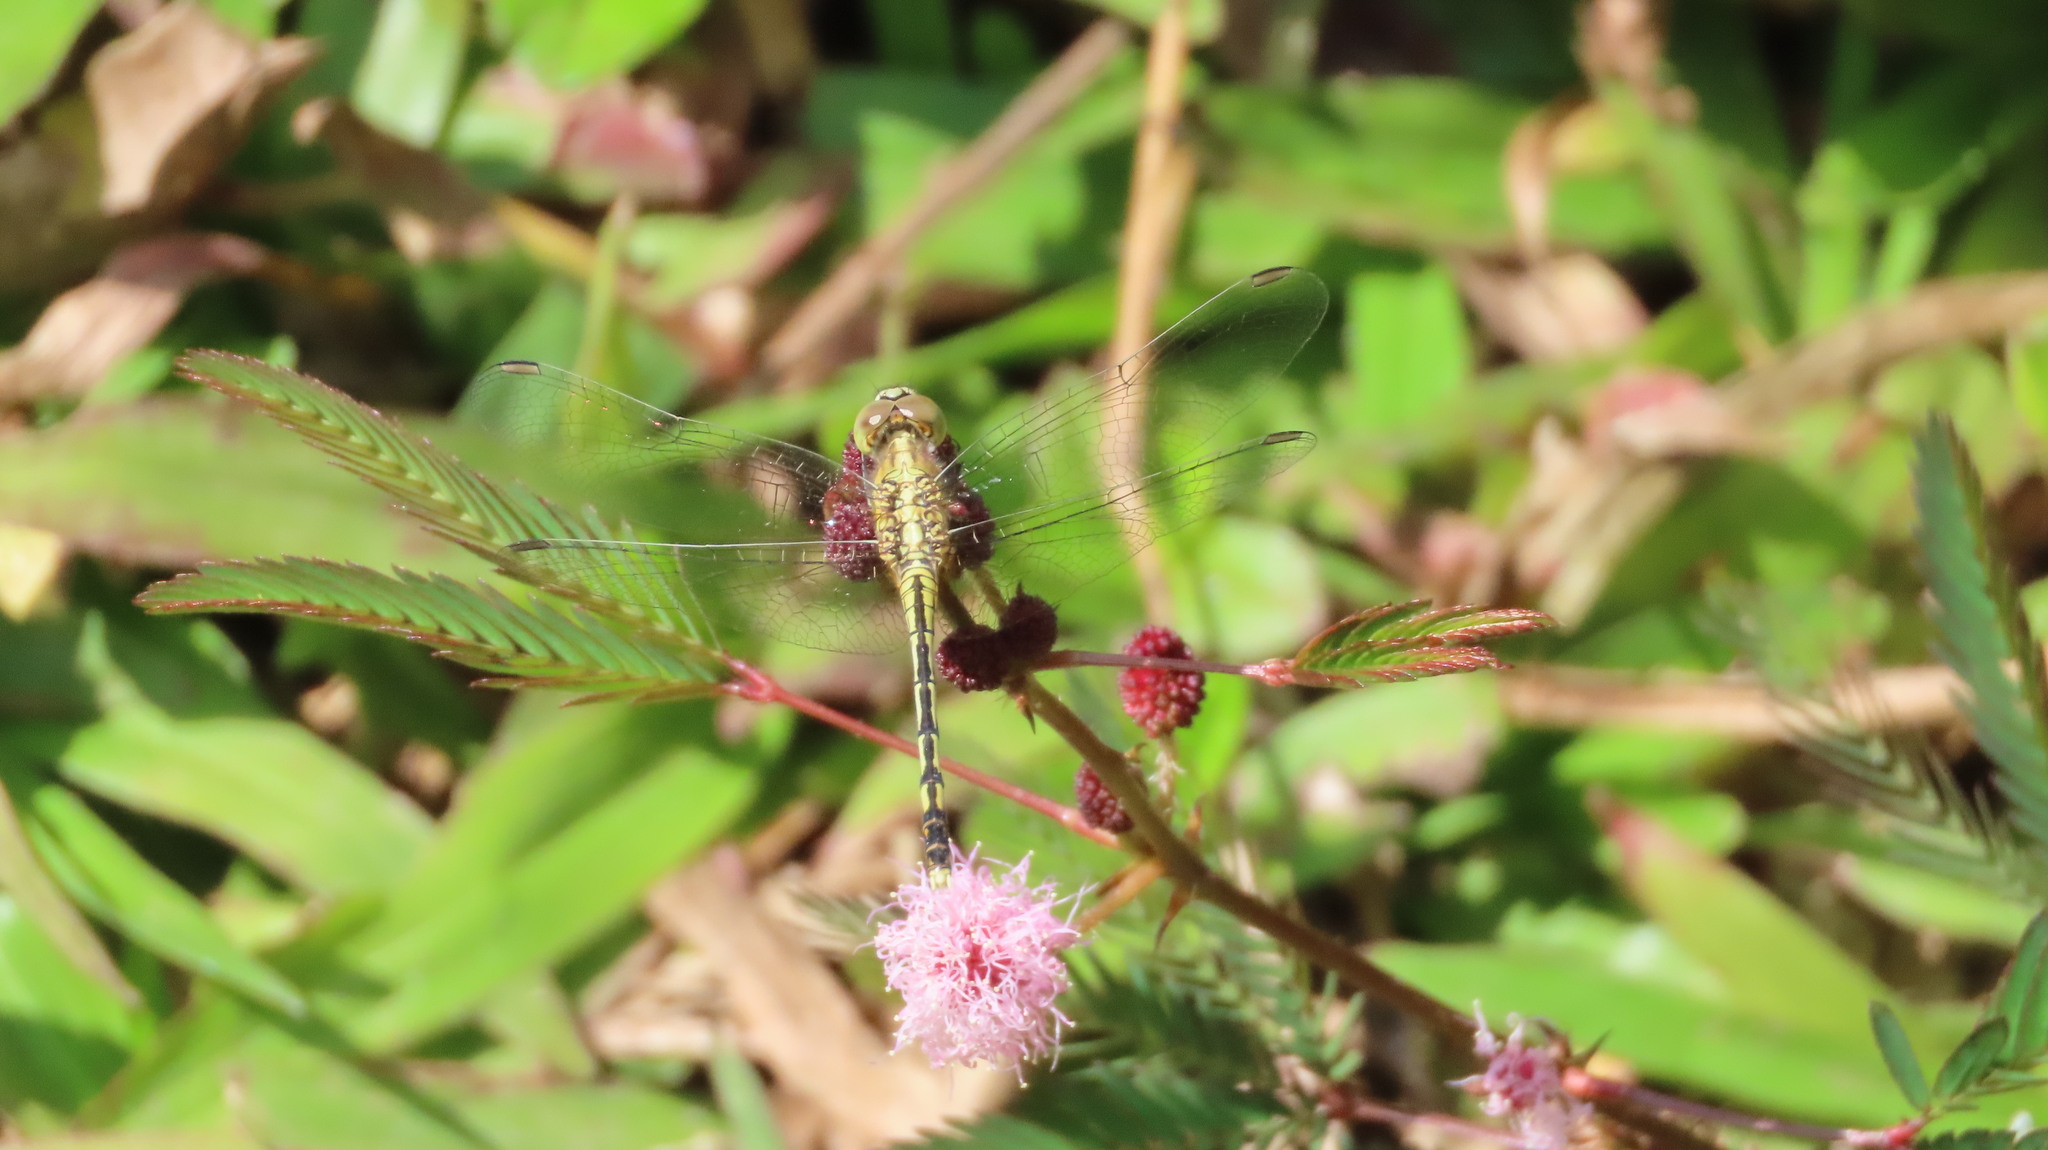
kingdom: Animalia
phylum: Arthropoda
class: Insecta
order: Odonata
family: Libellulidae
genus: Diplacodes
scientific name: Diplacodes trivialis
